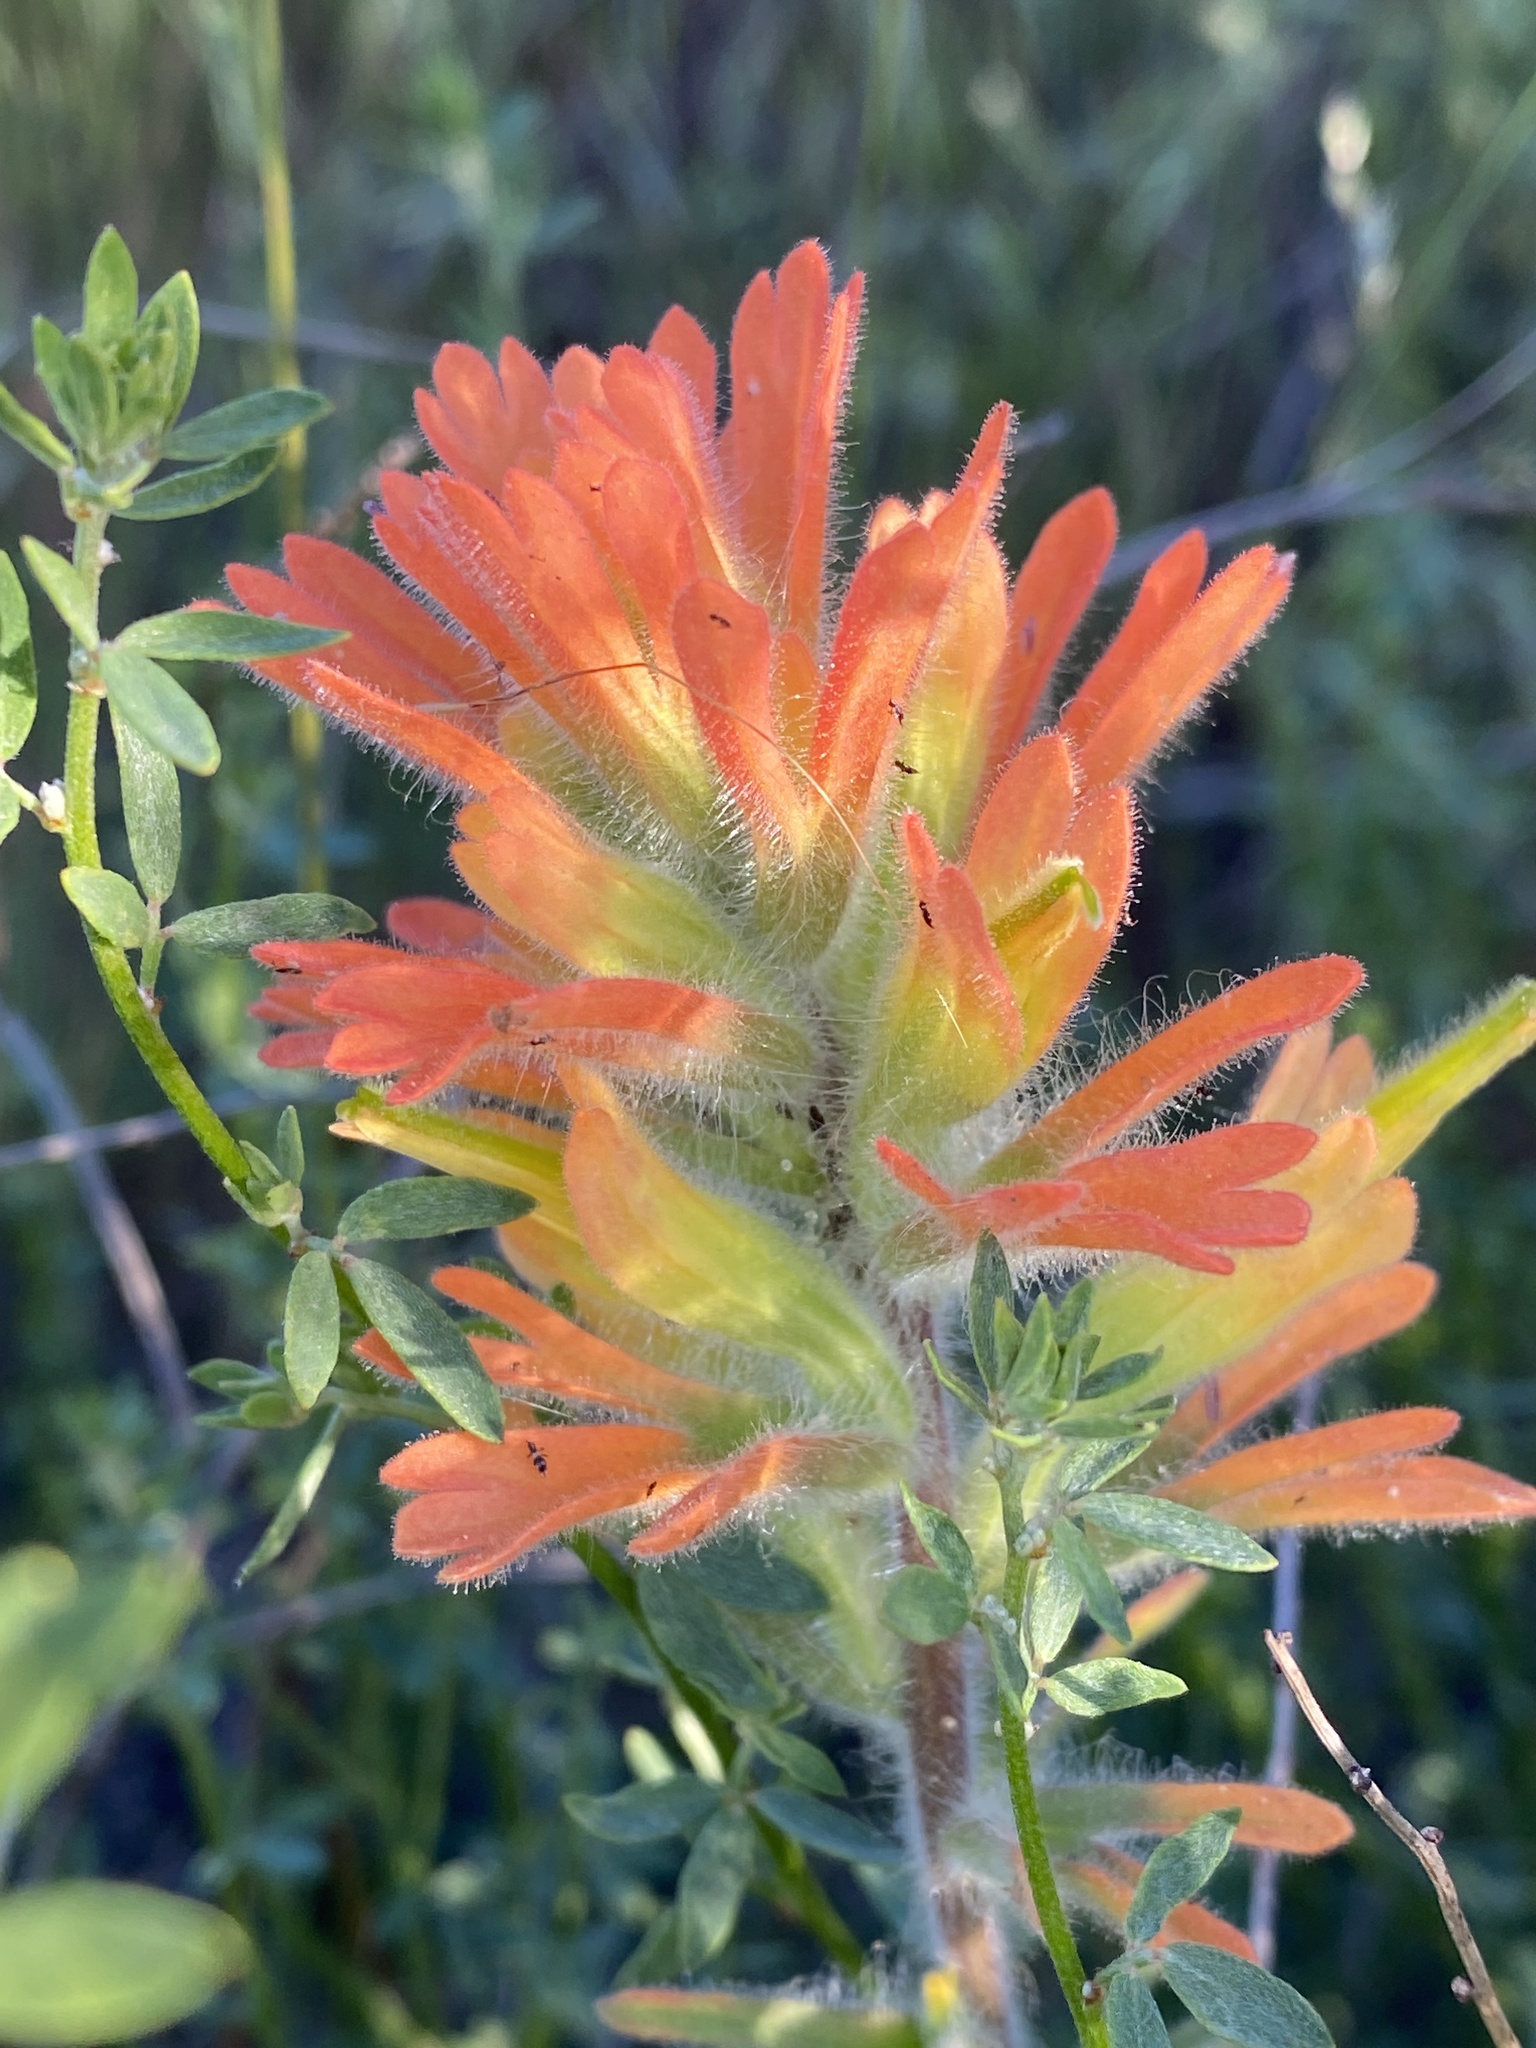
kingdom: Plantae
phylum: Tracheophyta
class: Magnoliopsida
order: Lamiales
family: Orobanchaceae
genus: Castilleja
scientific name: Castilleja affinis
